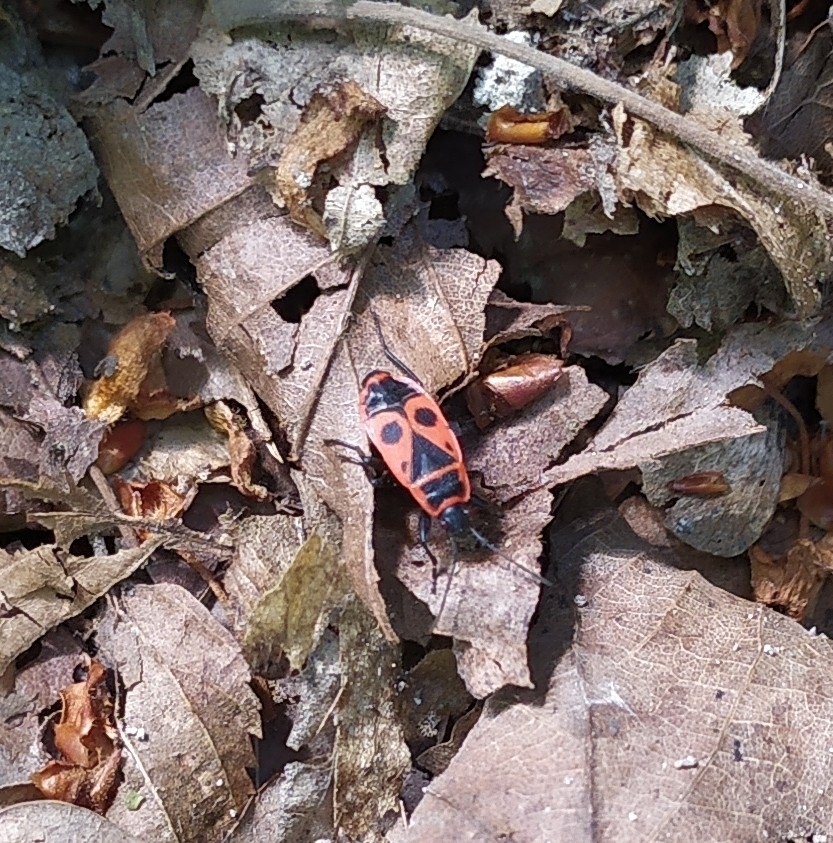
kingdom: Animalia
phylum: Arthropoda
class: Insecta
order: Hemiptera
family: Pyrrhocoridae
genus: Pyrrhocoris
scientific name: Pyrrhocoris apterus
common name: Firebug
